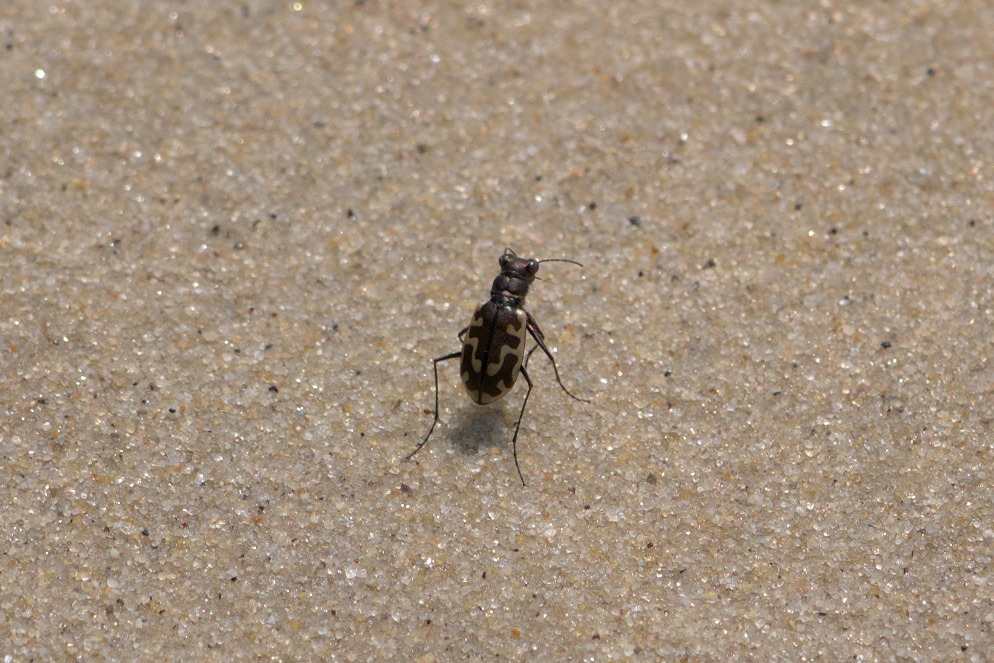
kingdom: Animalia
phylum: Arthropoda
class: Insecta
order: Coleoptera
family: Carabidae
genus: Cicindela
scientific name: Cicindela hirticollis
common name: Hairy-necked tiger beetle
